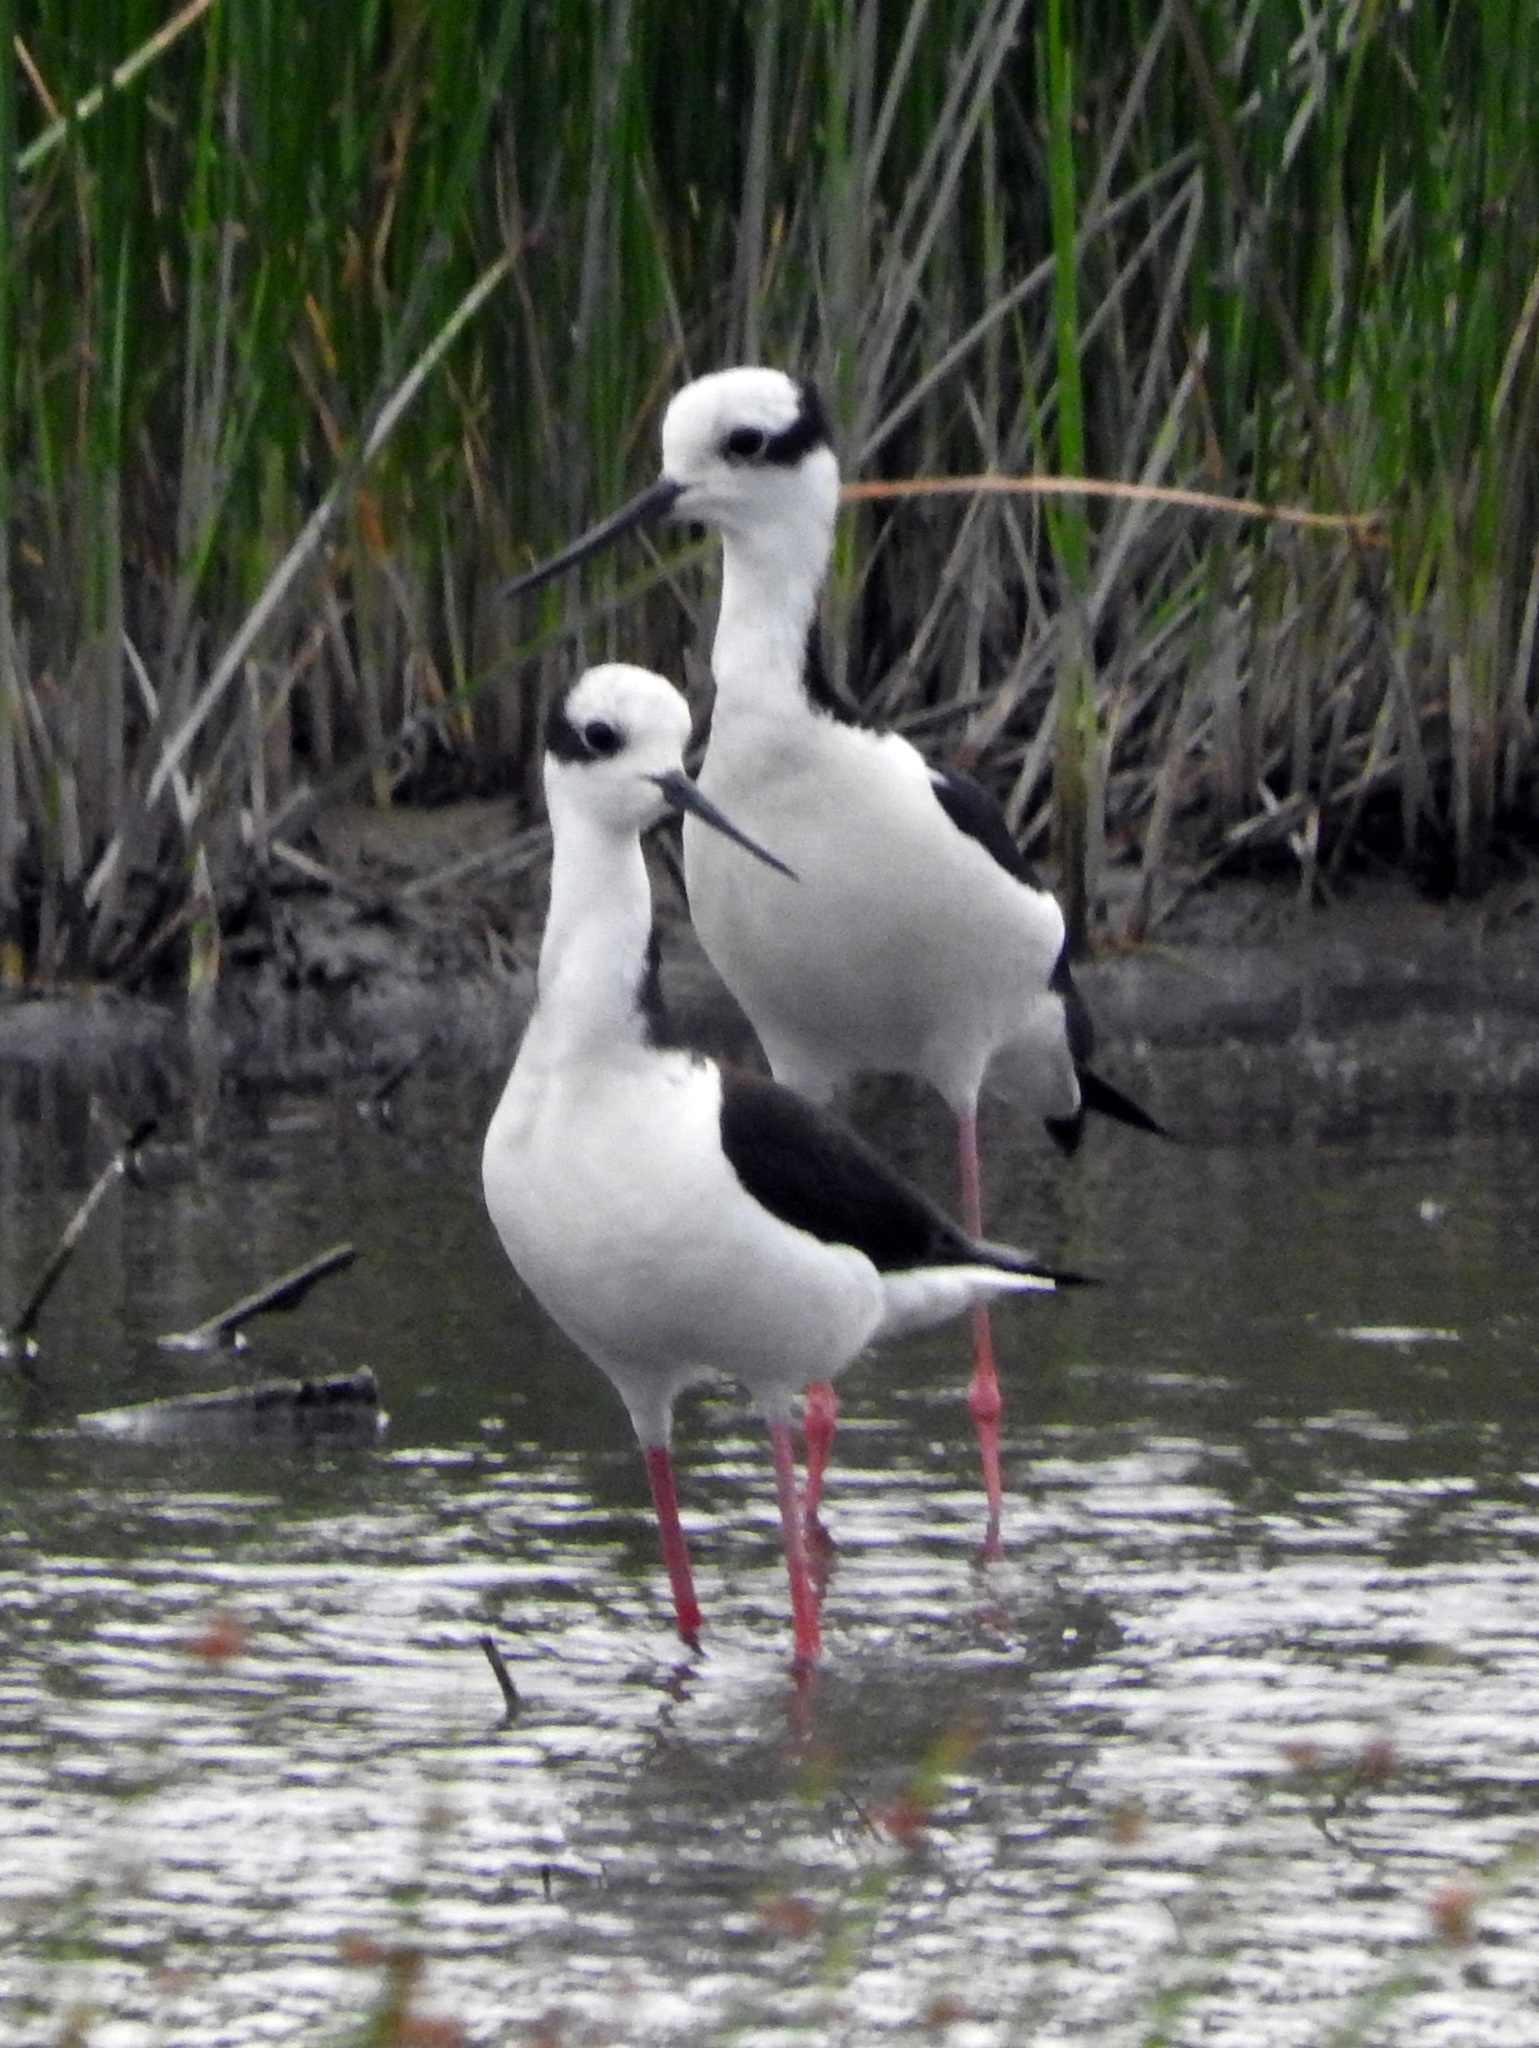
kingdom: Animalia
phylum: Chordata
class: Aves
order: Charadriiformes
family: Recurvirostridae
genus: Himantopus
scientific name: Himantopus mexicanus
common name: Black-necked stilt
